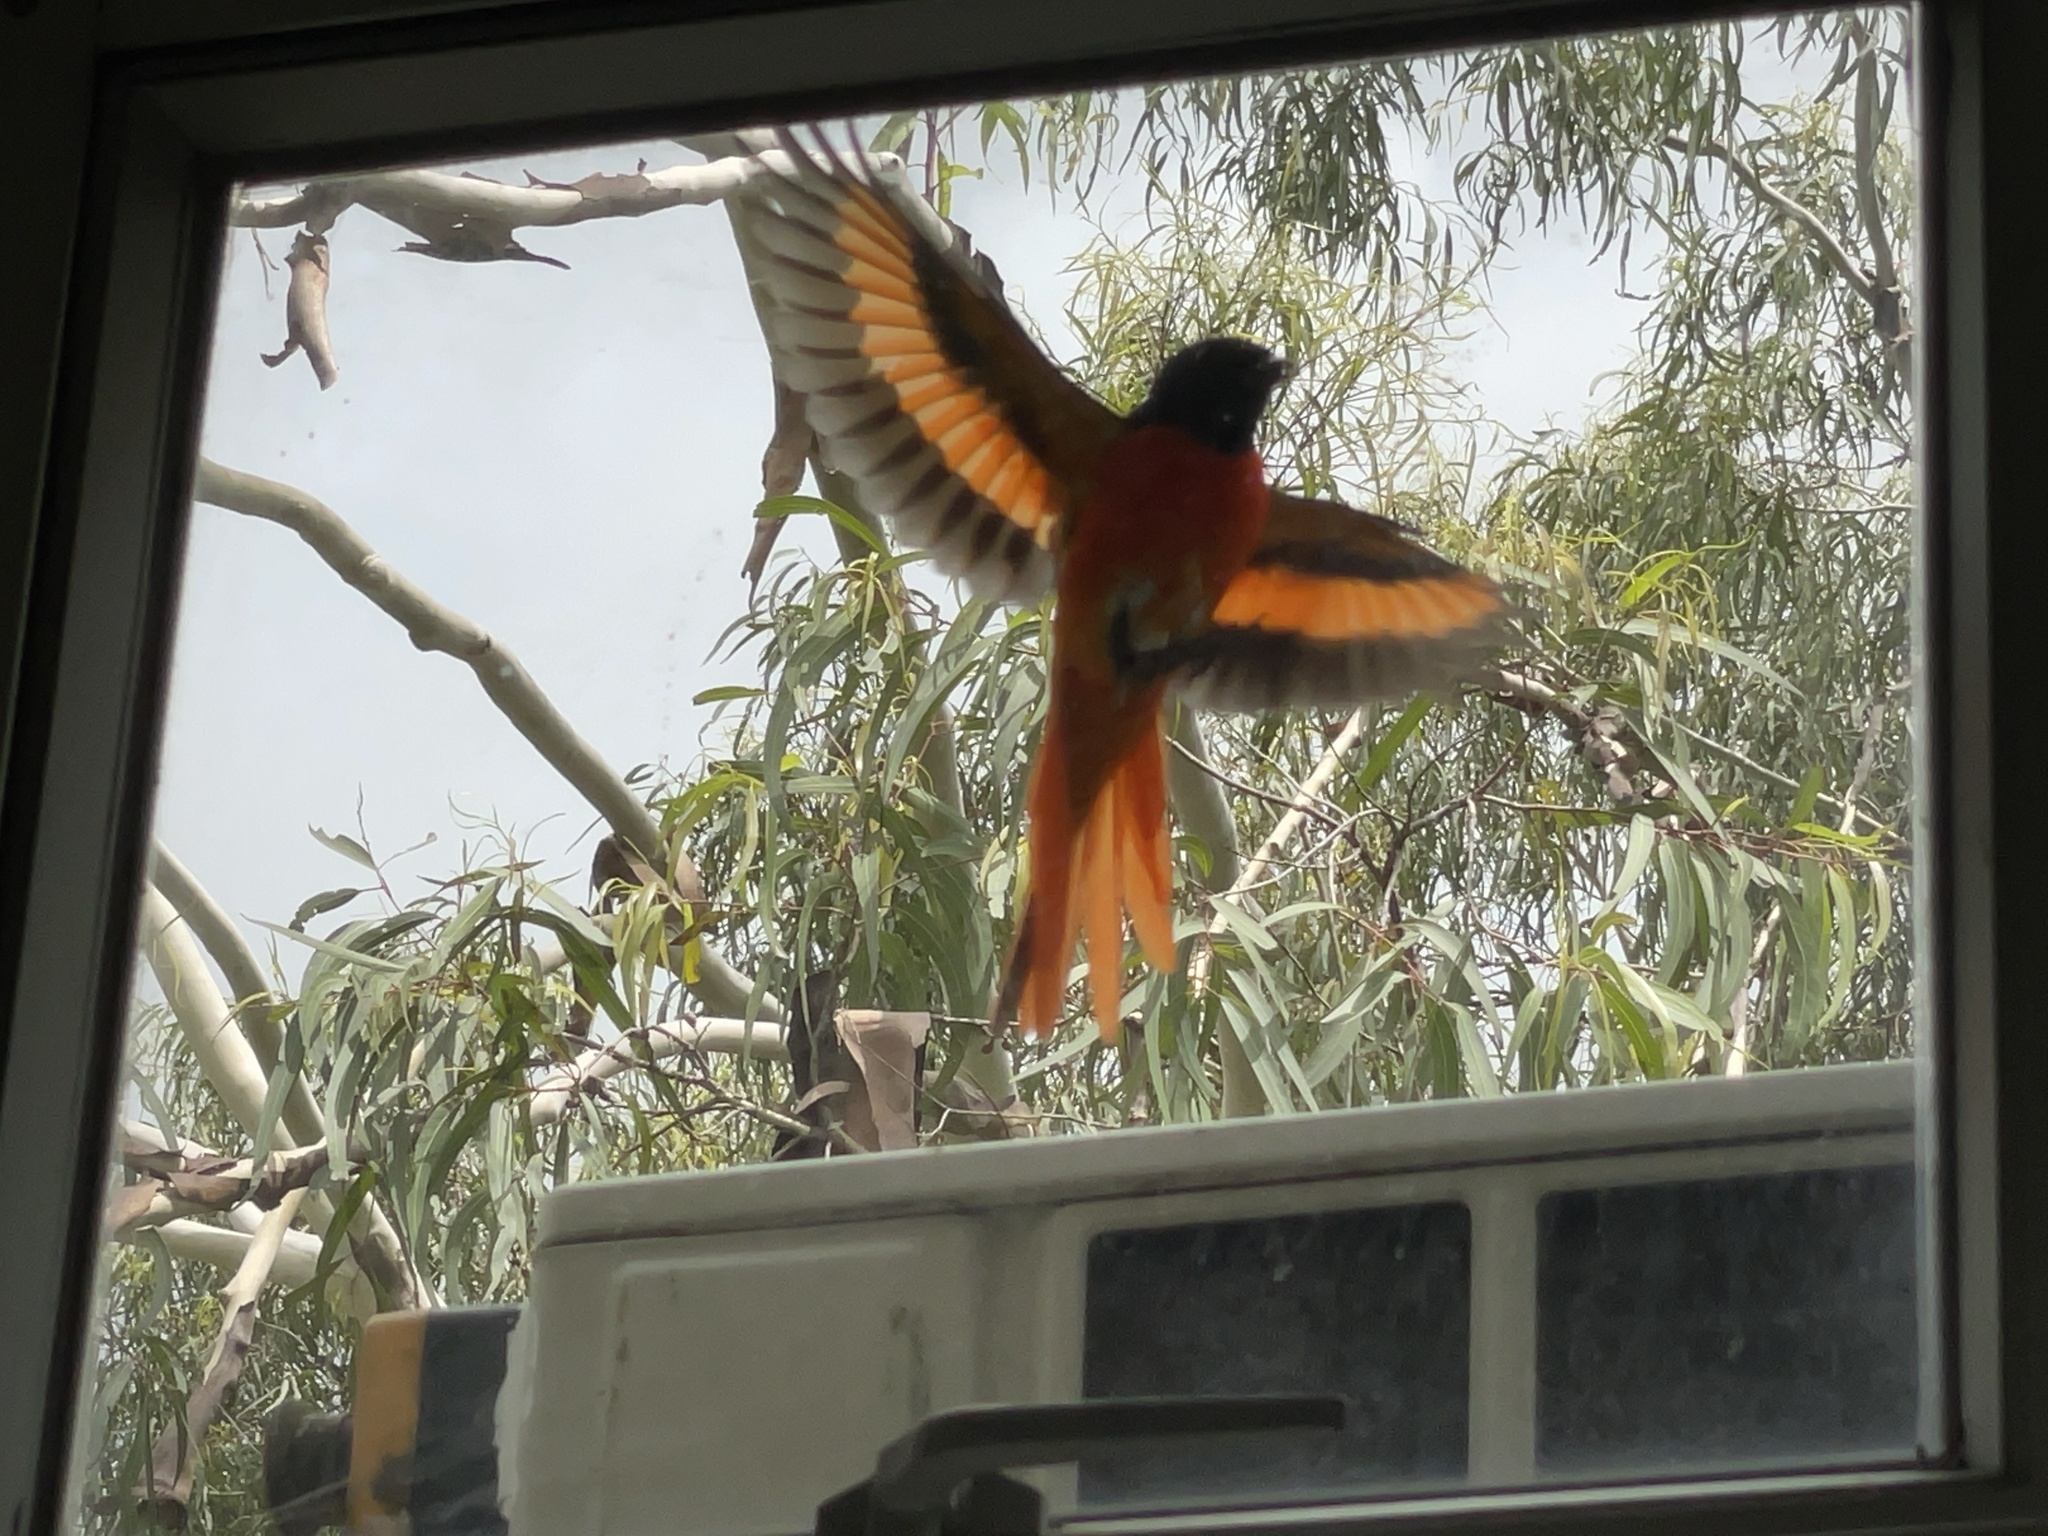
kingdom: Animalia
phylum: Chordata
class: Aves
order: Passeriformes
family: Campephagidae
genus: Pericrocotus
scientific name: Pericrocotus speciosus
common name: Scarlet minivet
